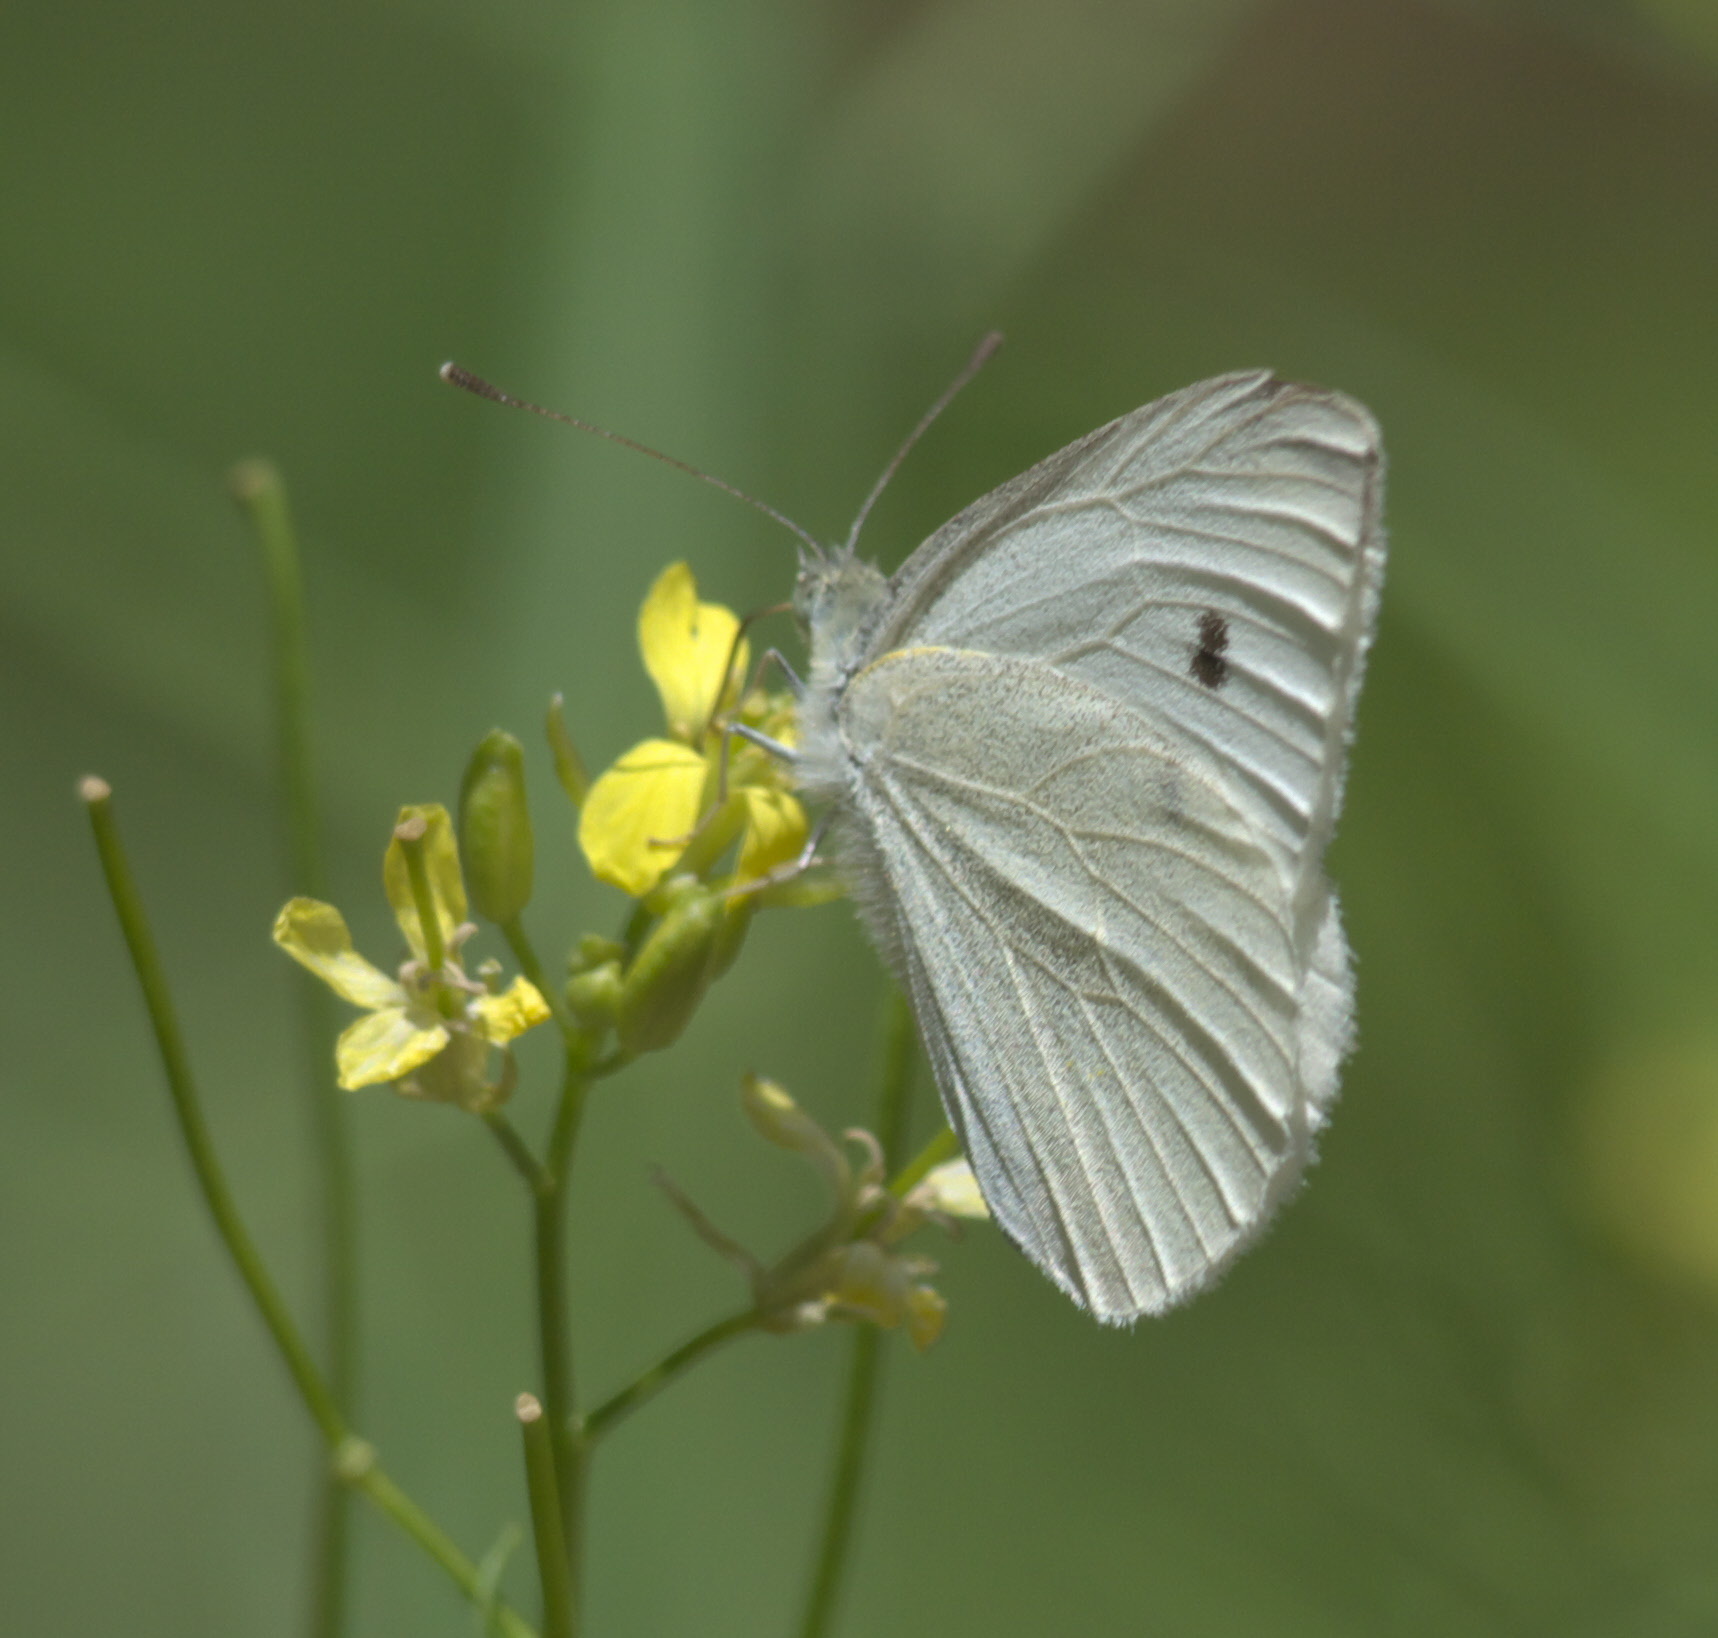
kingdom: Animalia
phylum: Arthropoda
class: Insecta
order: Lepidoptera
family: Pieridae
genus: Pieris
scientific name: Pieris rapae
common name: Small white
